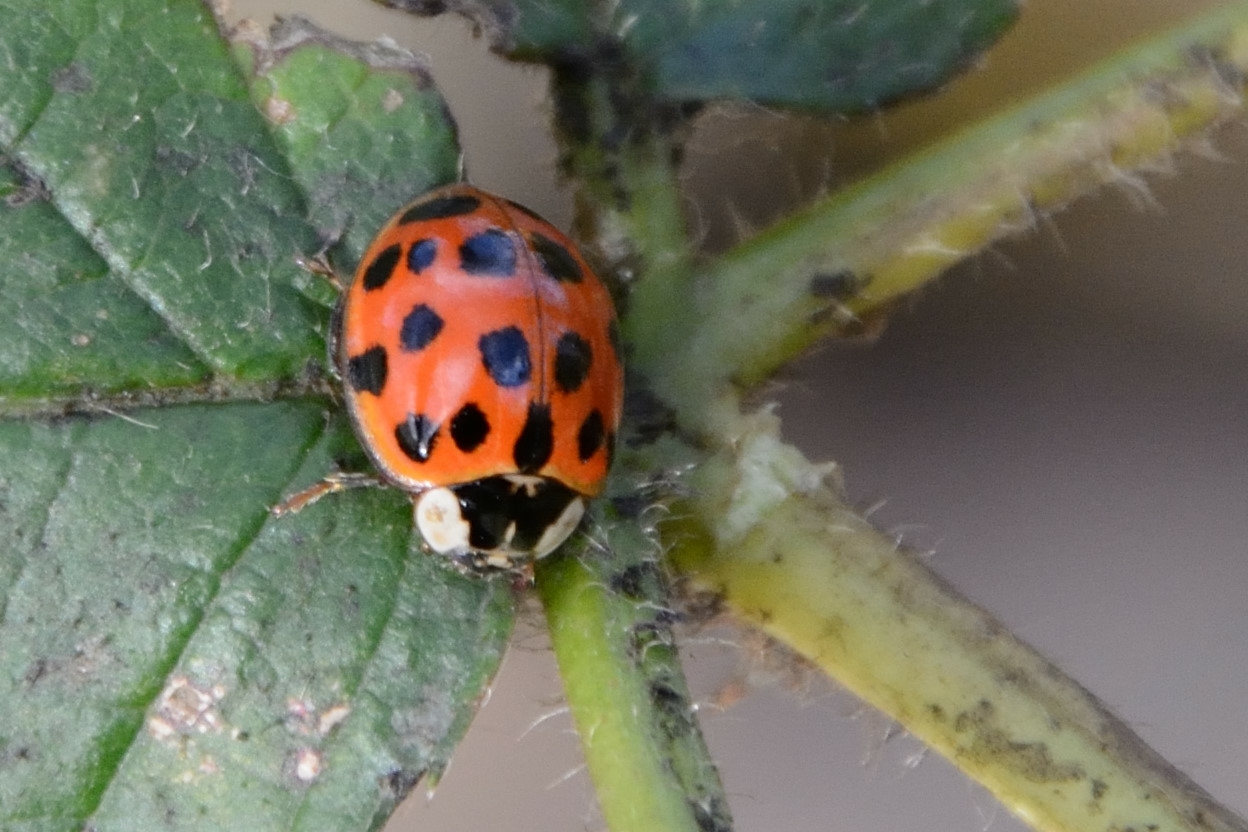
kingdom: Animalia
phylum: Arthropoda
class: Insecta
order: Coleoptera
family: Coccinellidae
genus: Harmonia
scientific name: Harmonia axyridis
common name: Harlequin ladybird
